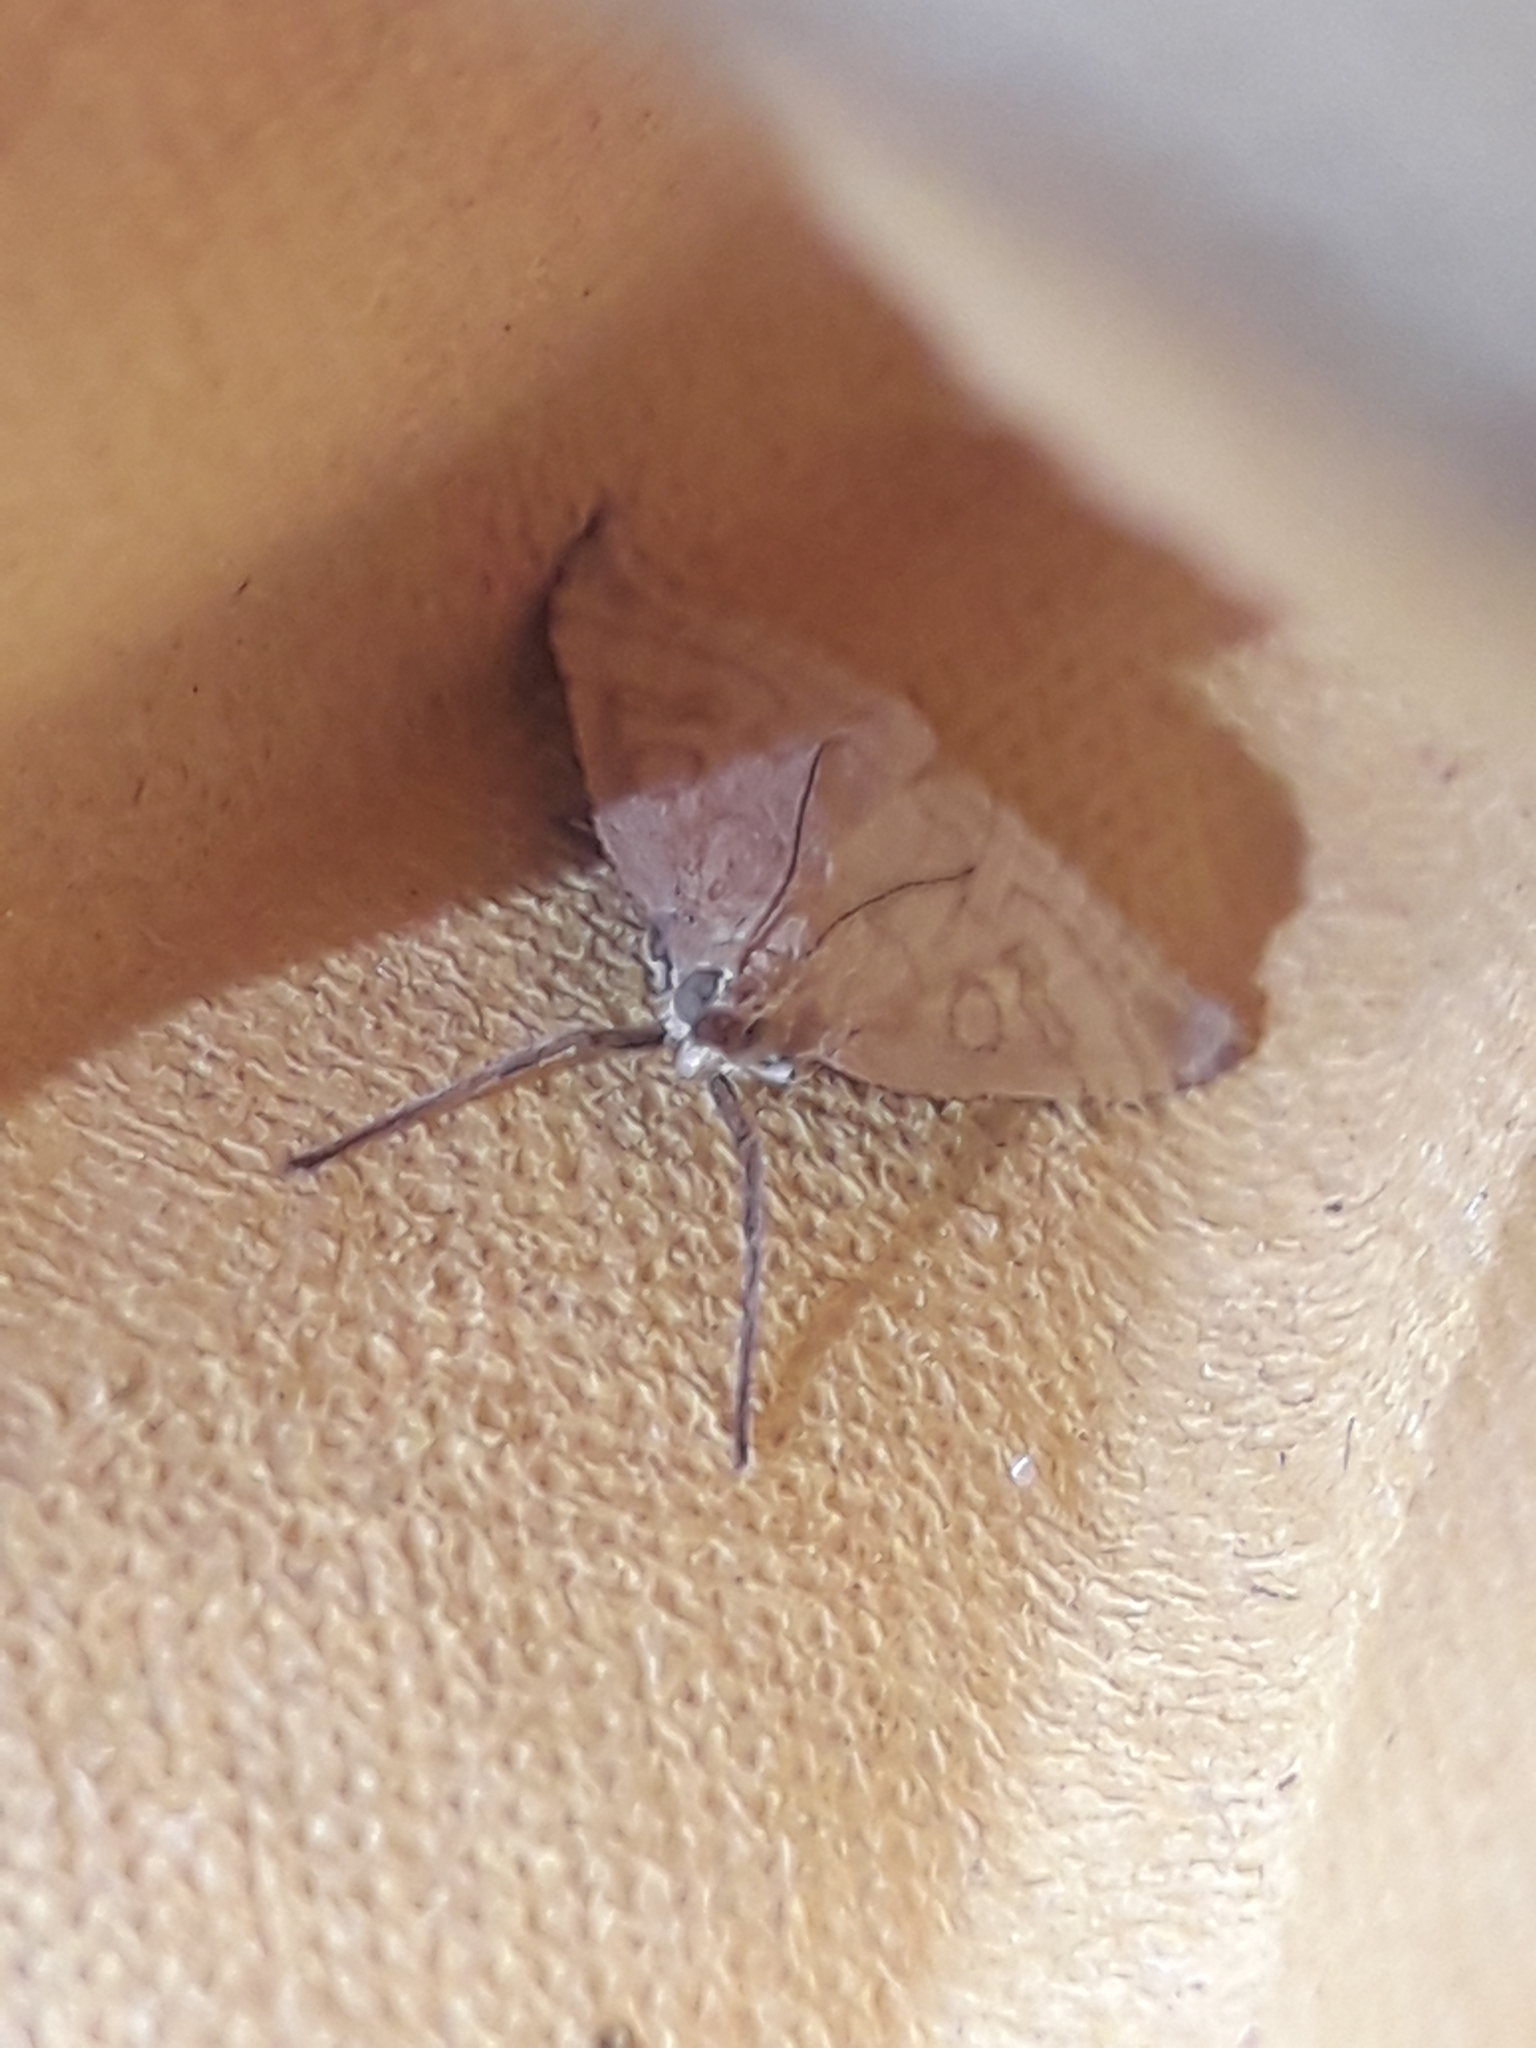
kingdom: Animalia
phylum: Arthropoda
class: Insecta
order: Lepidoptera
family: Crambidae
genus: Udea
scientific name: Udea lutealis
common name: Pale straw pearl
